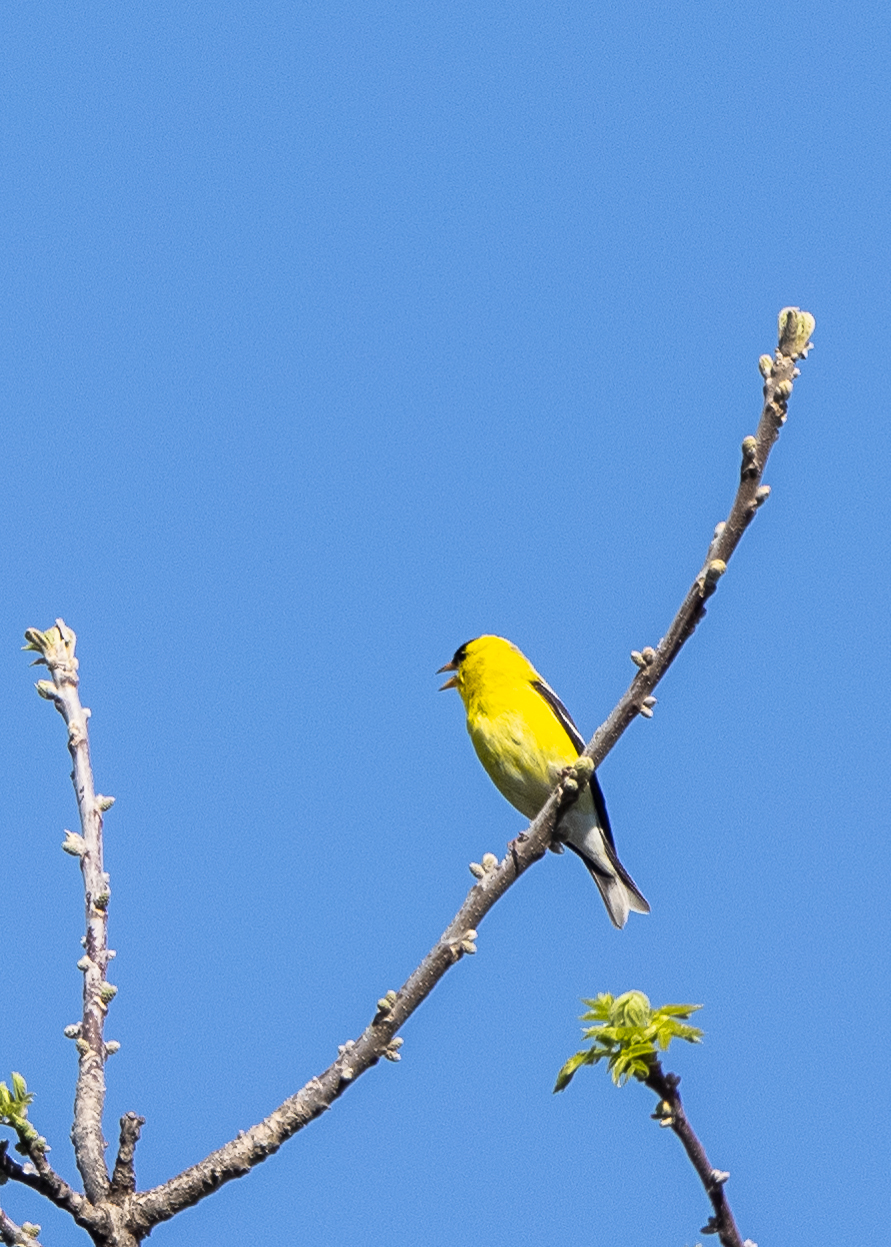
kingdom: Animalia
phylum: Chordata
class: Aves
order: Passeriformes
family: Fringillidae
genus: Spinus
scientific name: Spinus tristis
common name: American goldfinch
